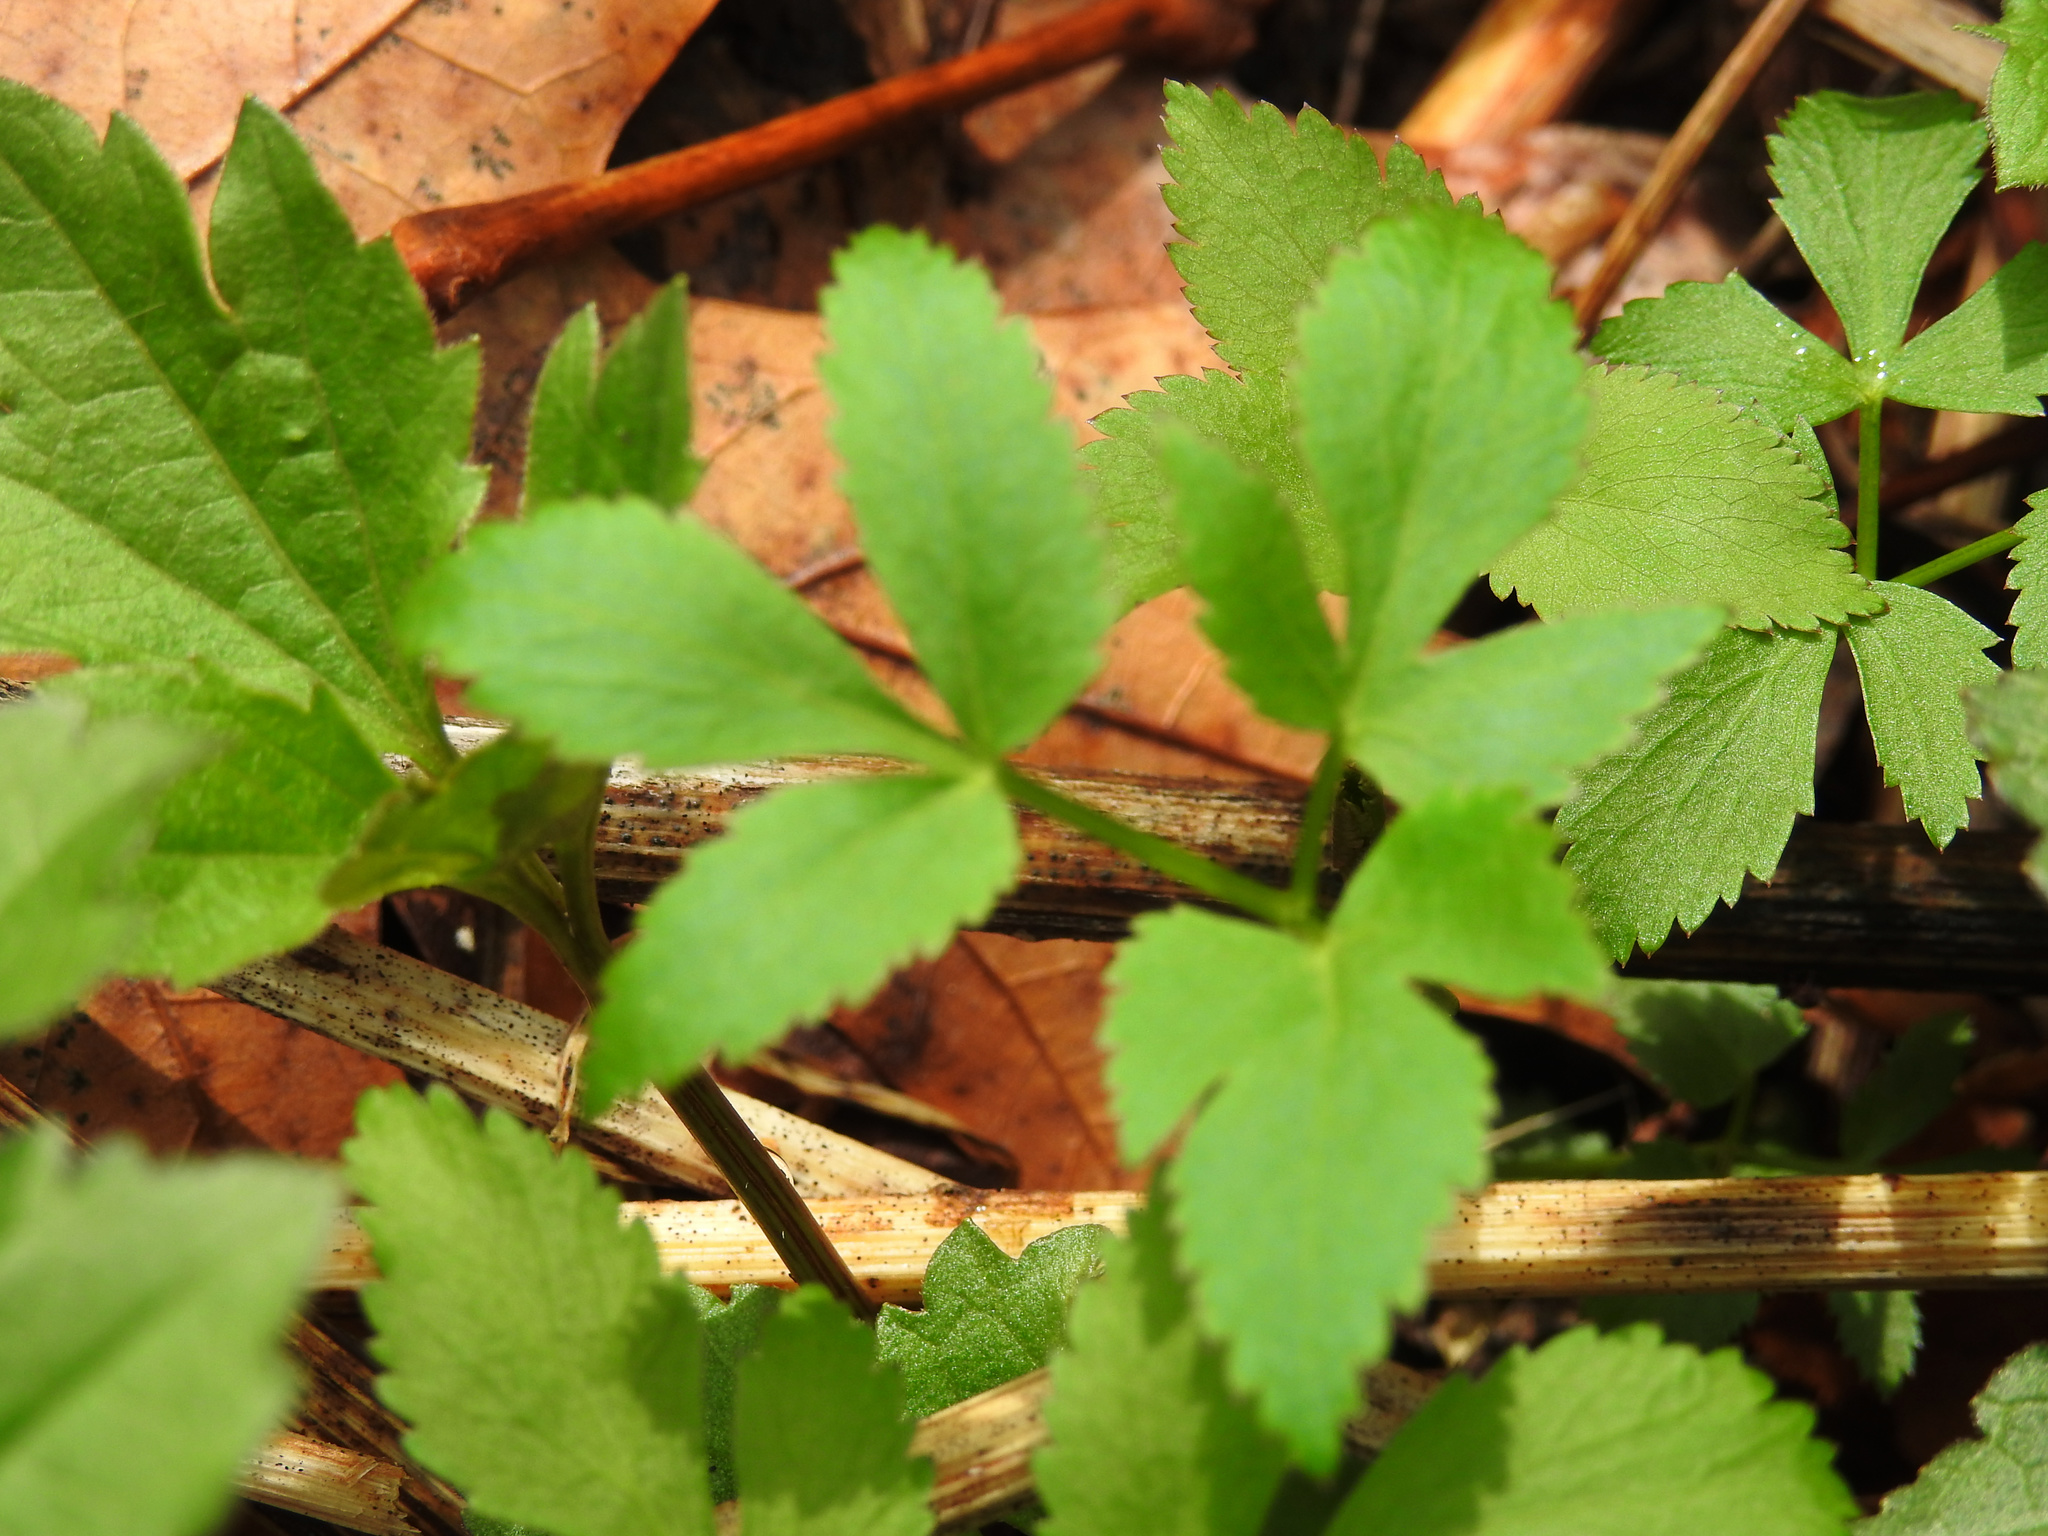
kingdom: Plantae
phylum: Tracheophyta
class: Magnoliopsida
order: Apiales
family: Apiaceae
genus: Zizia
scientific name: Zizia aurea
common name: Golden alexanders
